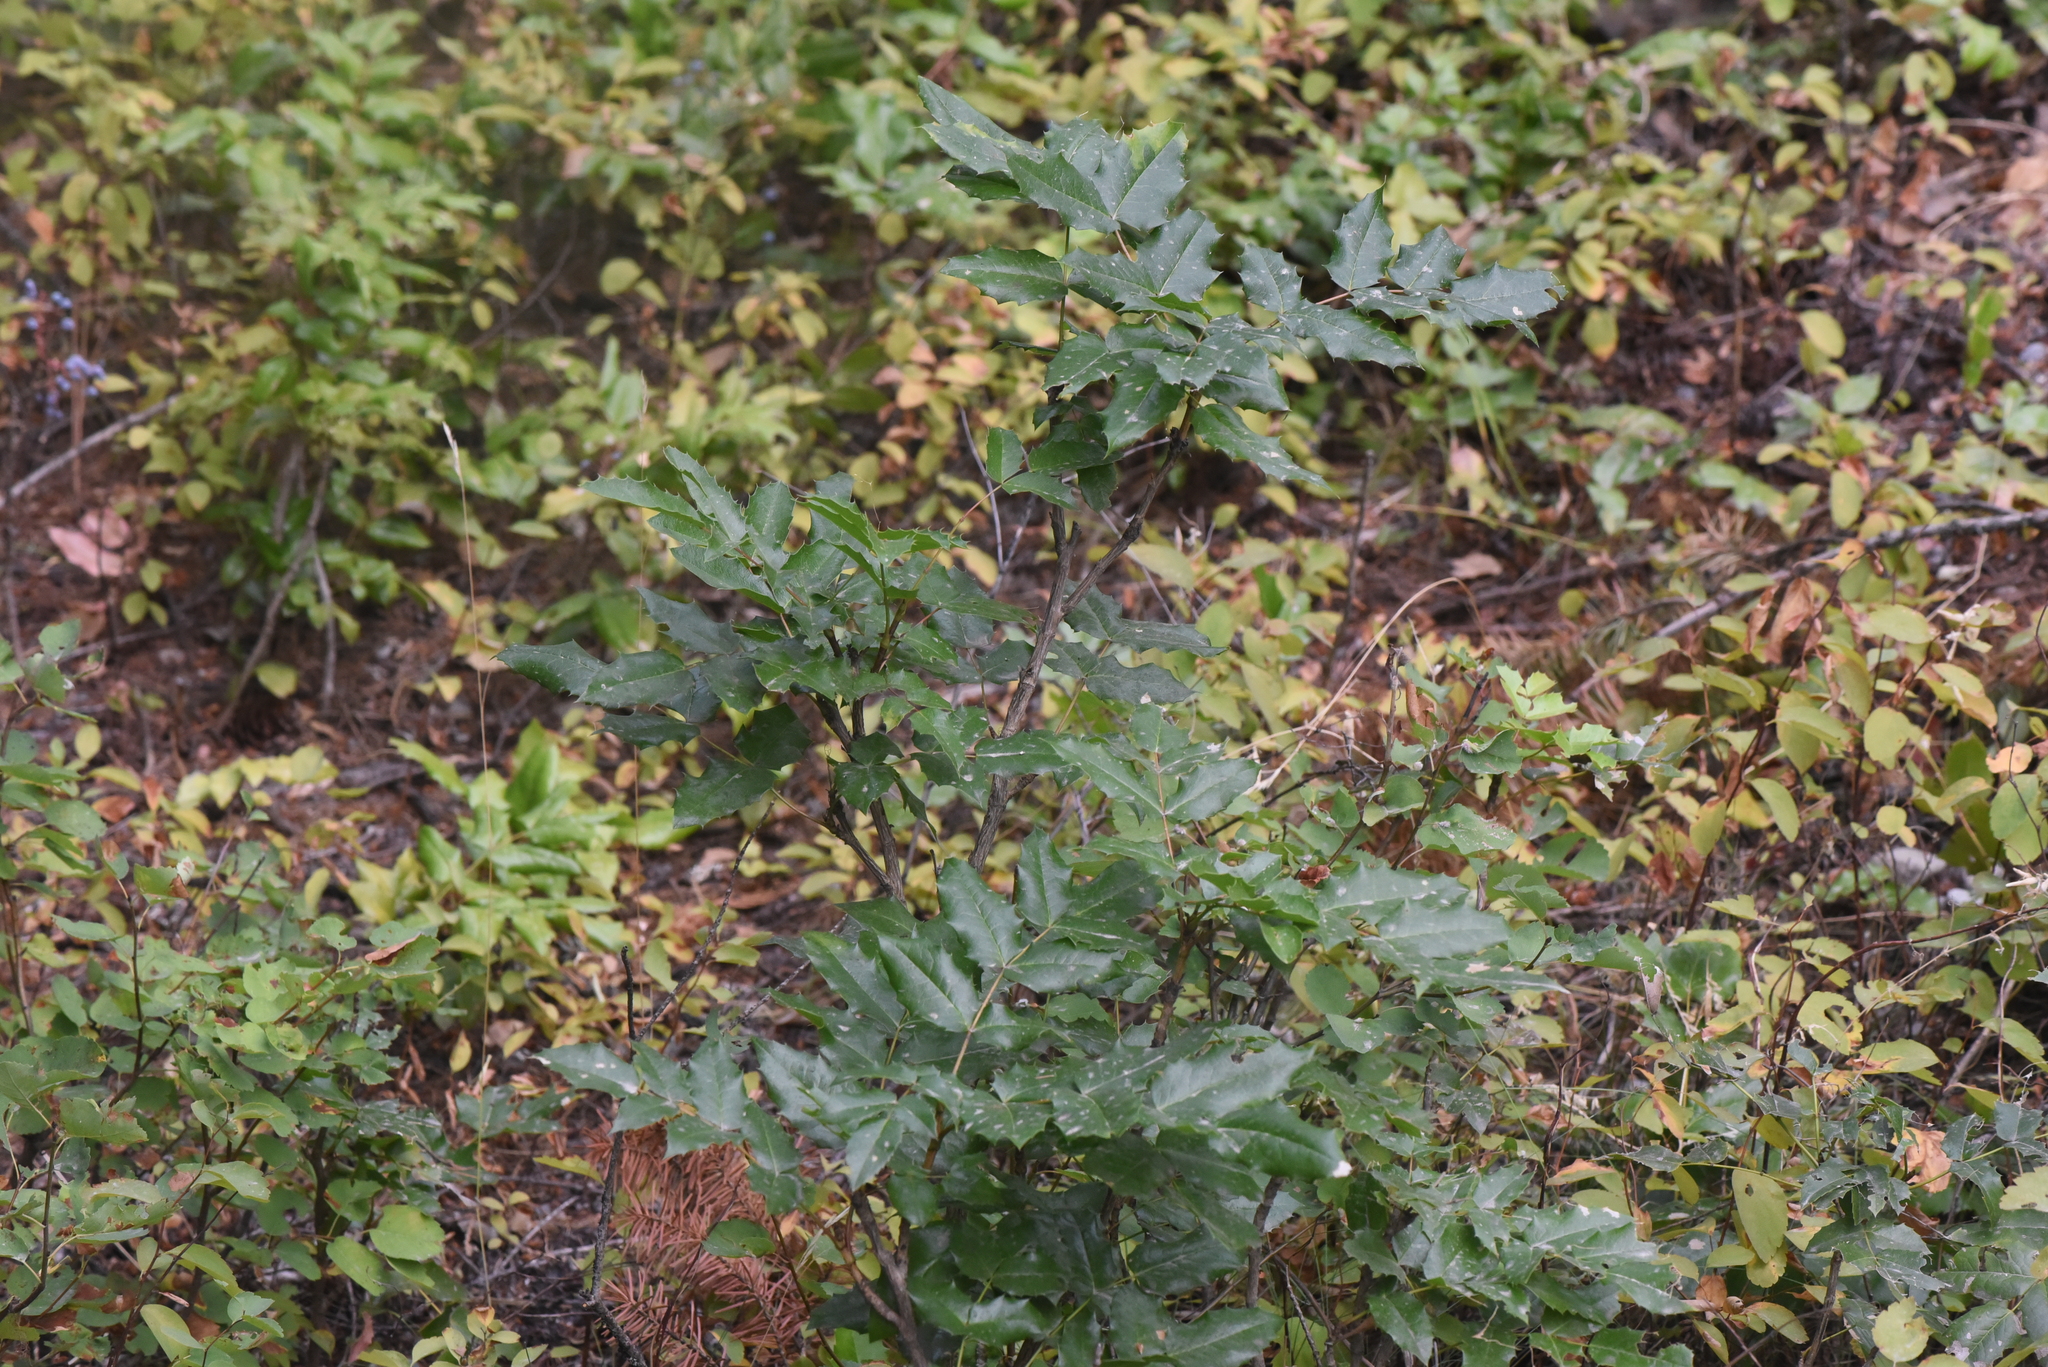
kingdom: Plantae
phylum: Tracheophyta
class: Magnoliopsida
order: Ranunculales
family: Berberidaceae
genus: Mahonia
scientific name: Mahonia aquifolium
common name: Oregon-grape
